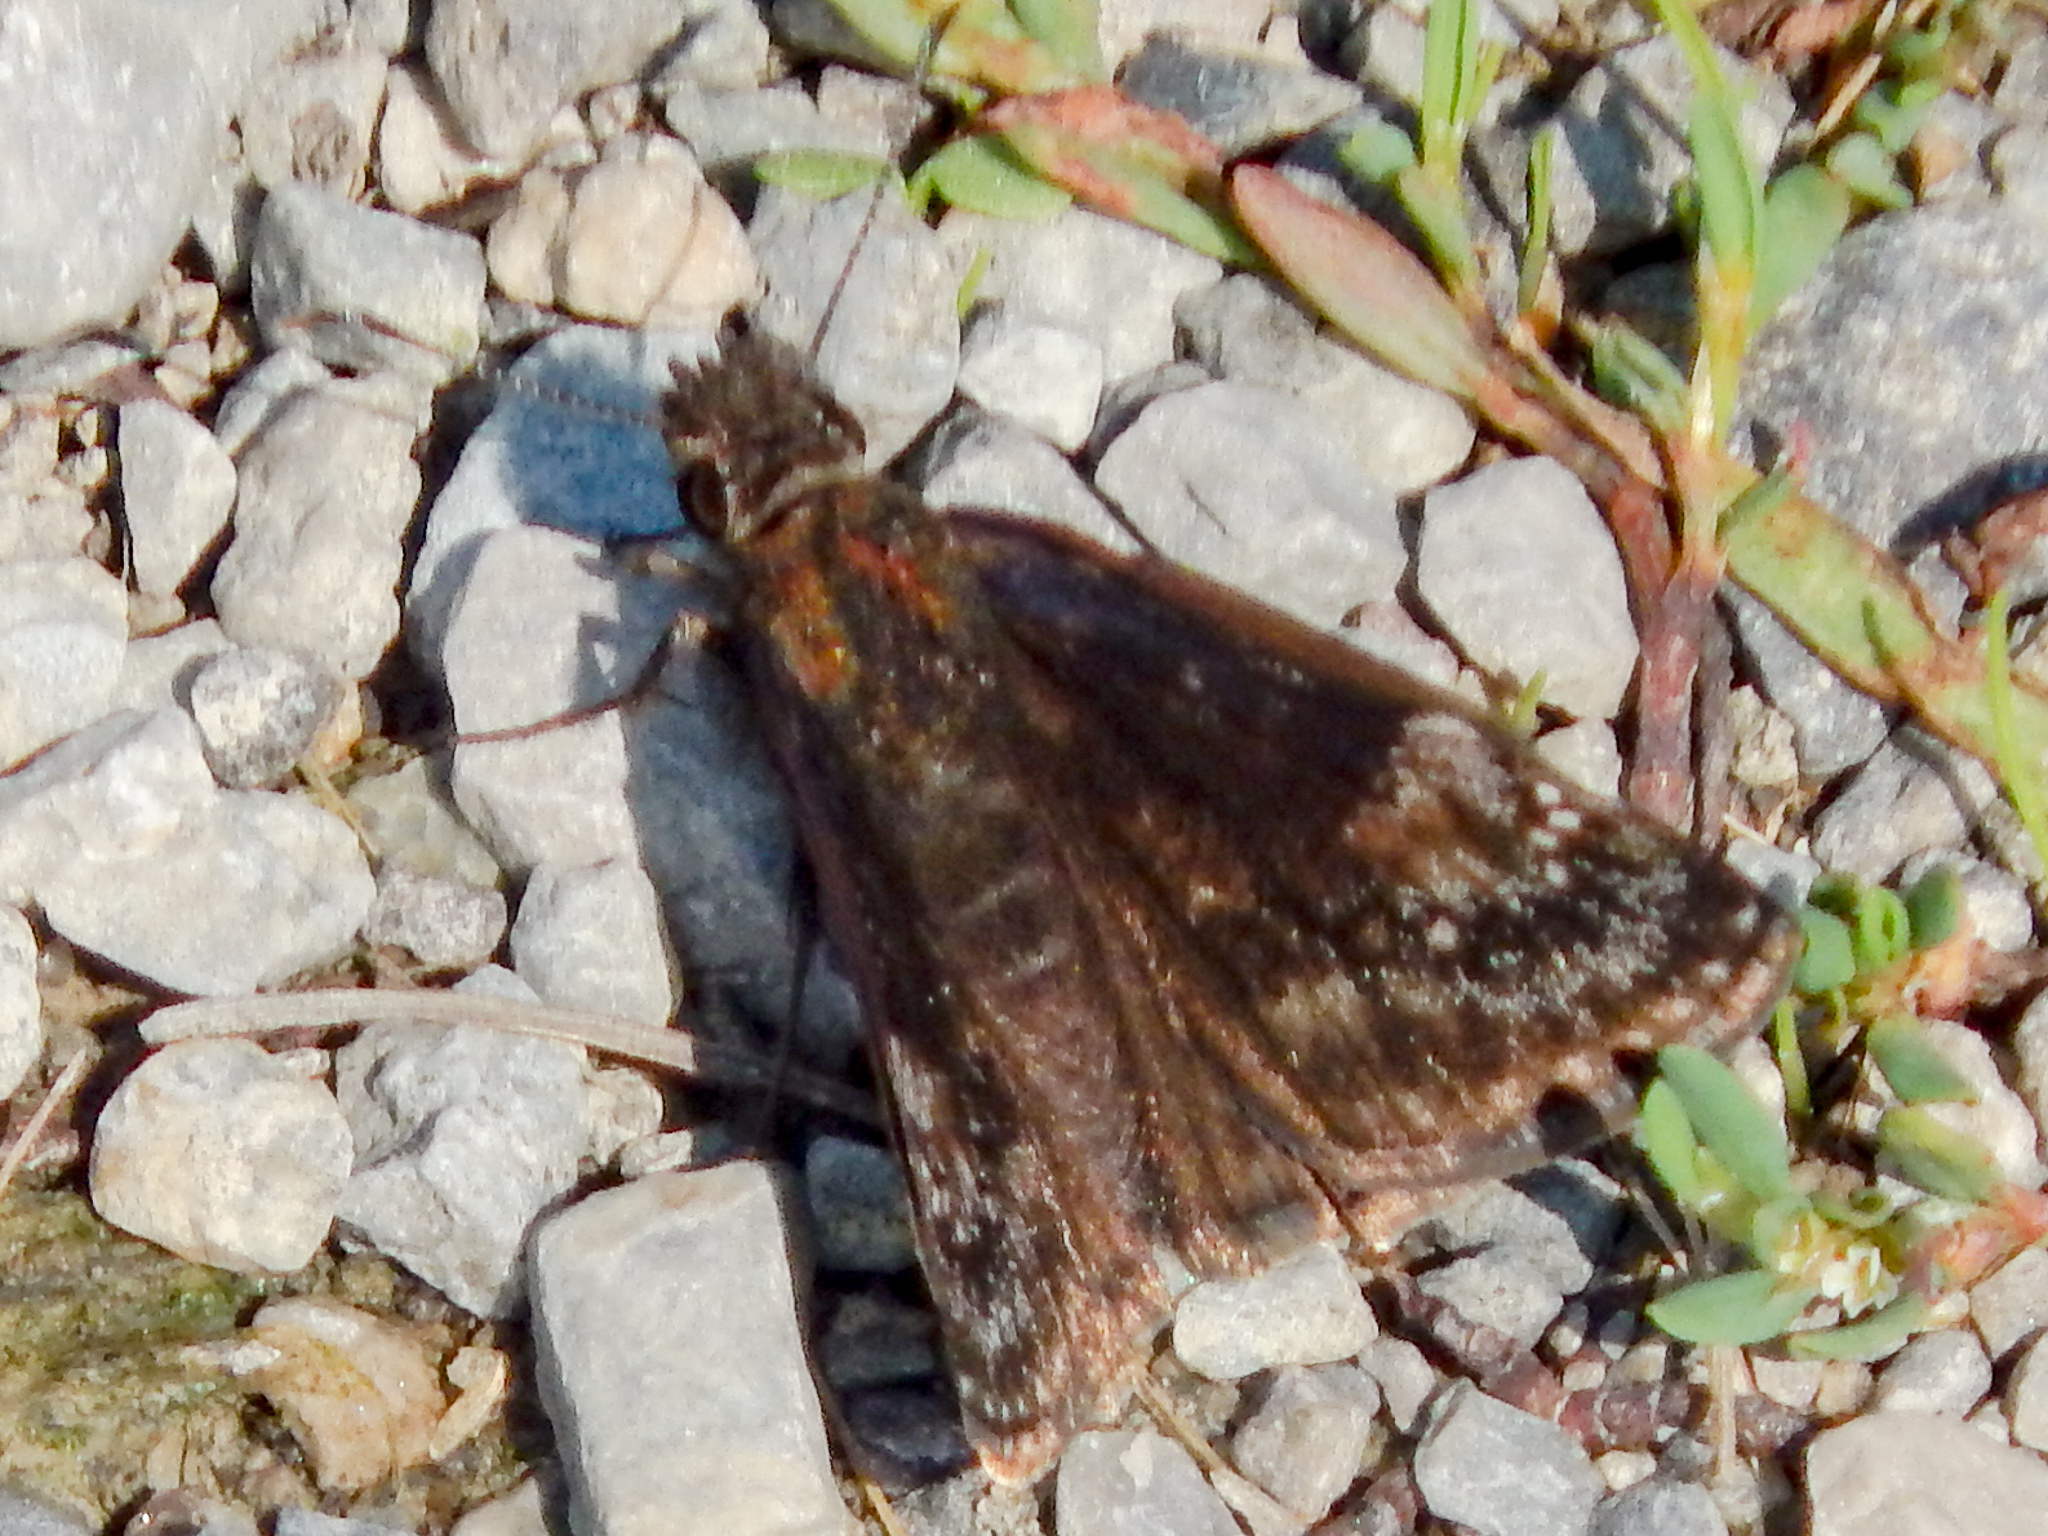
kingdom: Animalia
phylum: Arthropoda
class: Insecta
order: Lepidoptera
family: Hesperiidae
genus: Erynnis
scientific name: Erynnis baptisiae
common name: Wild indigo duskywing
